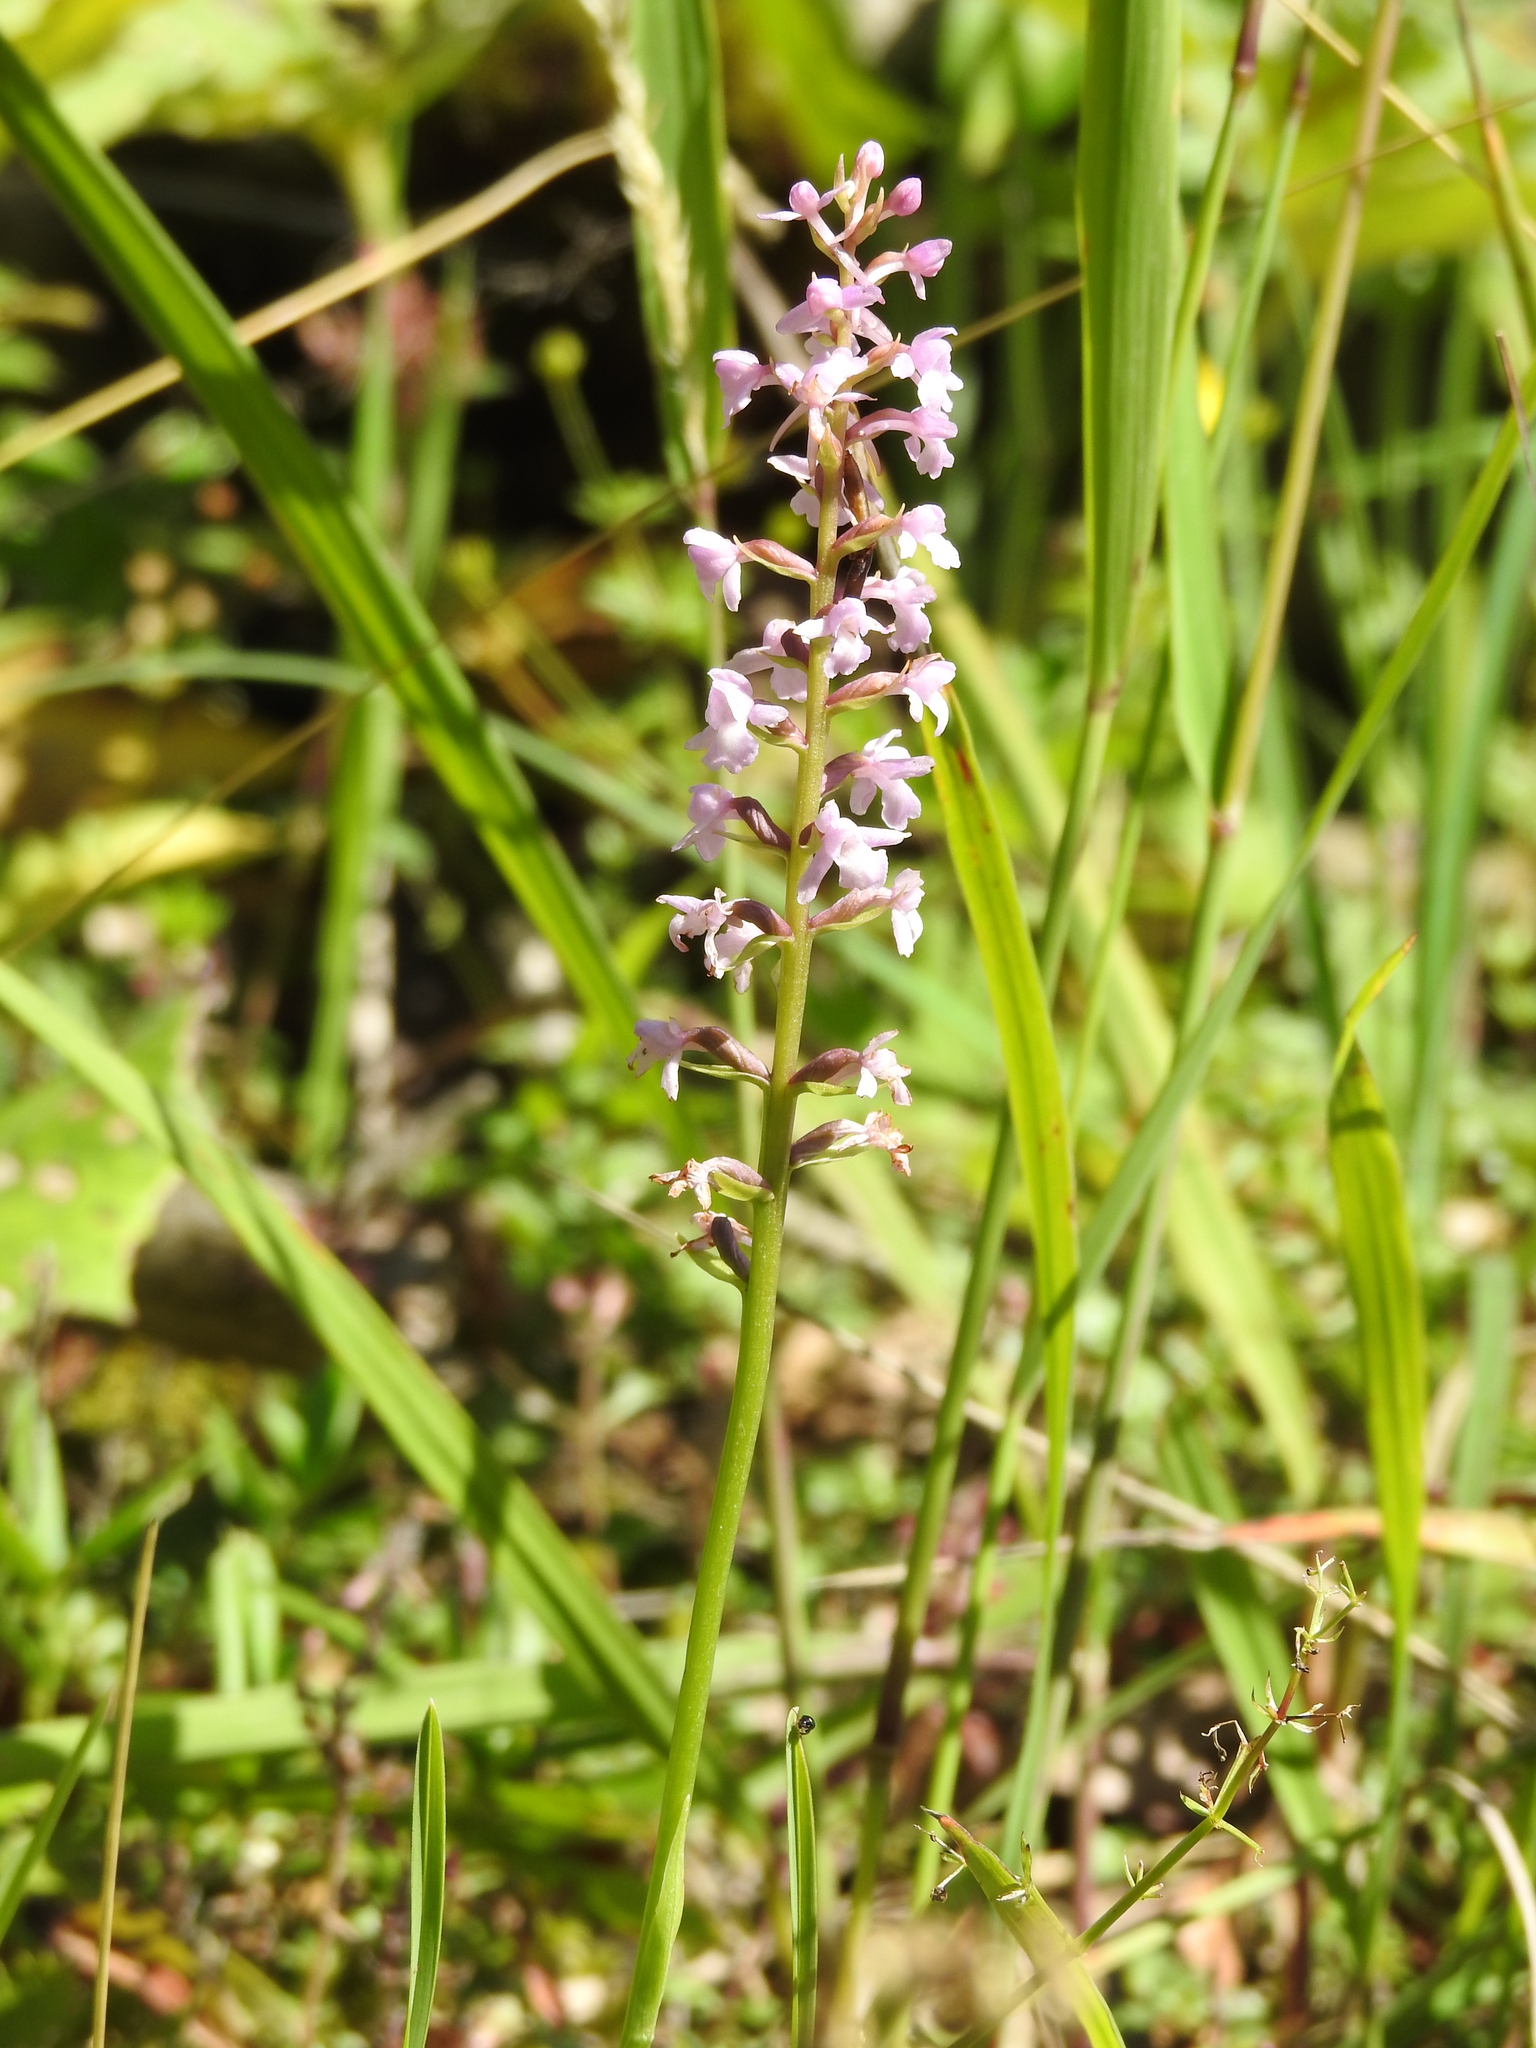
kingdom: Plantae
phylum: Tracheophyta
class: Liliopsida
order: Asparagales
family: Orchidaceae
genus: Gymnadenia
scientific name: Gymnadenia odoratissima
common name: Scented gymnadenia
